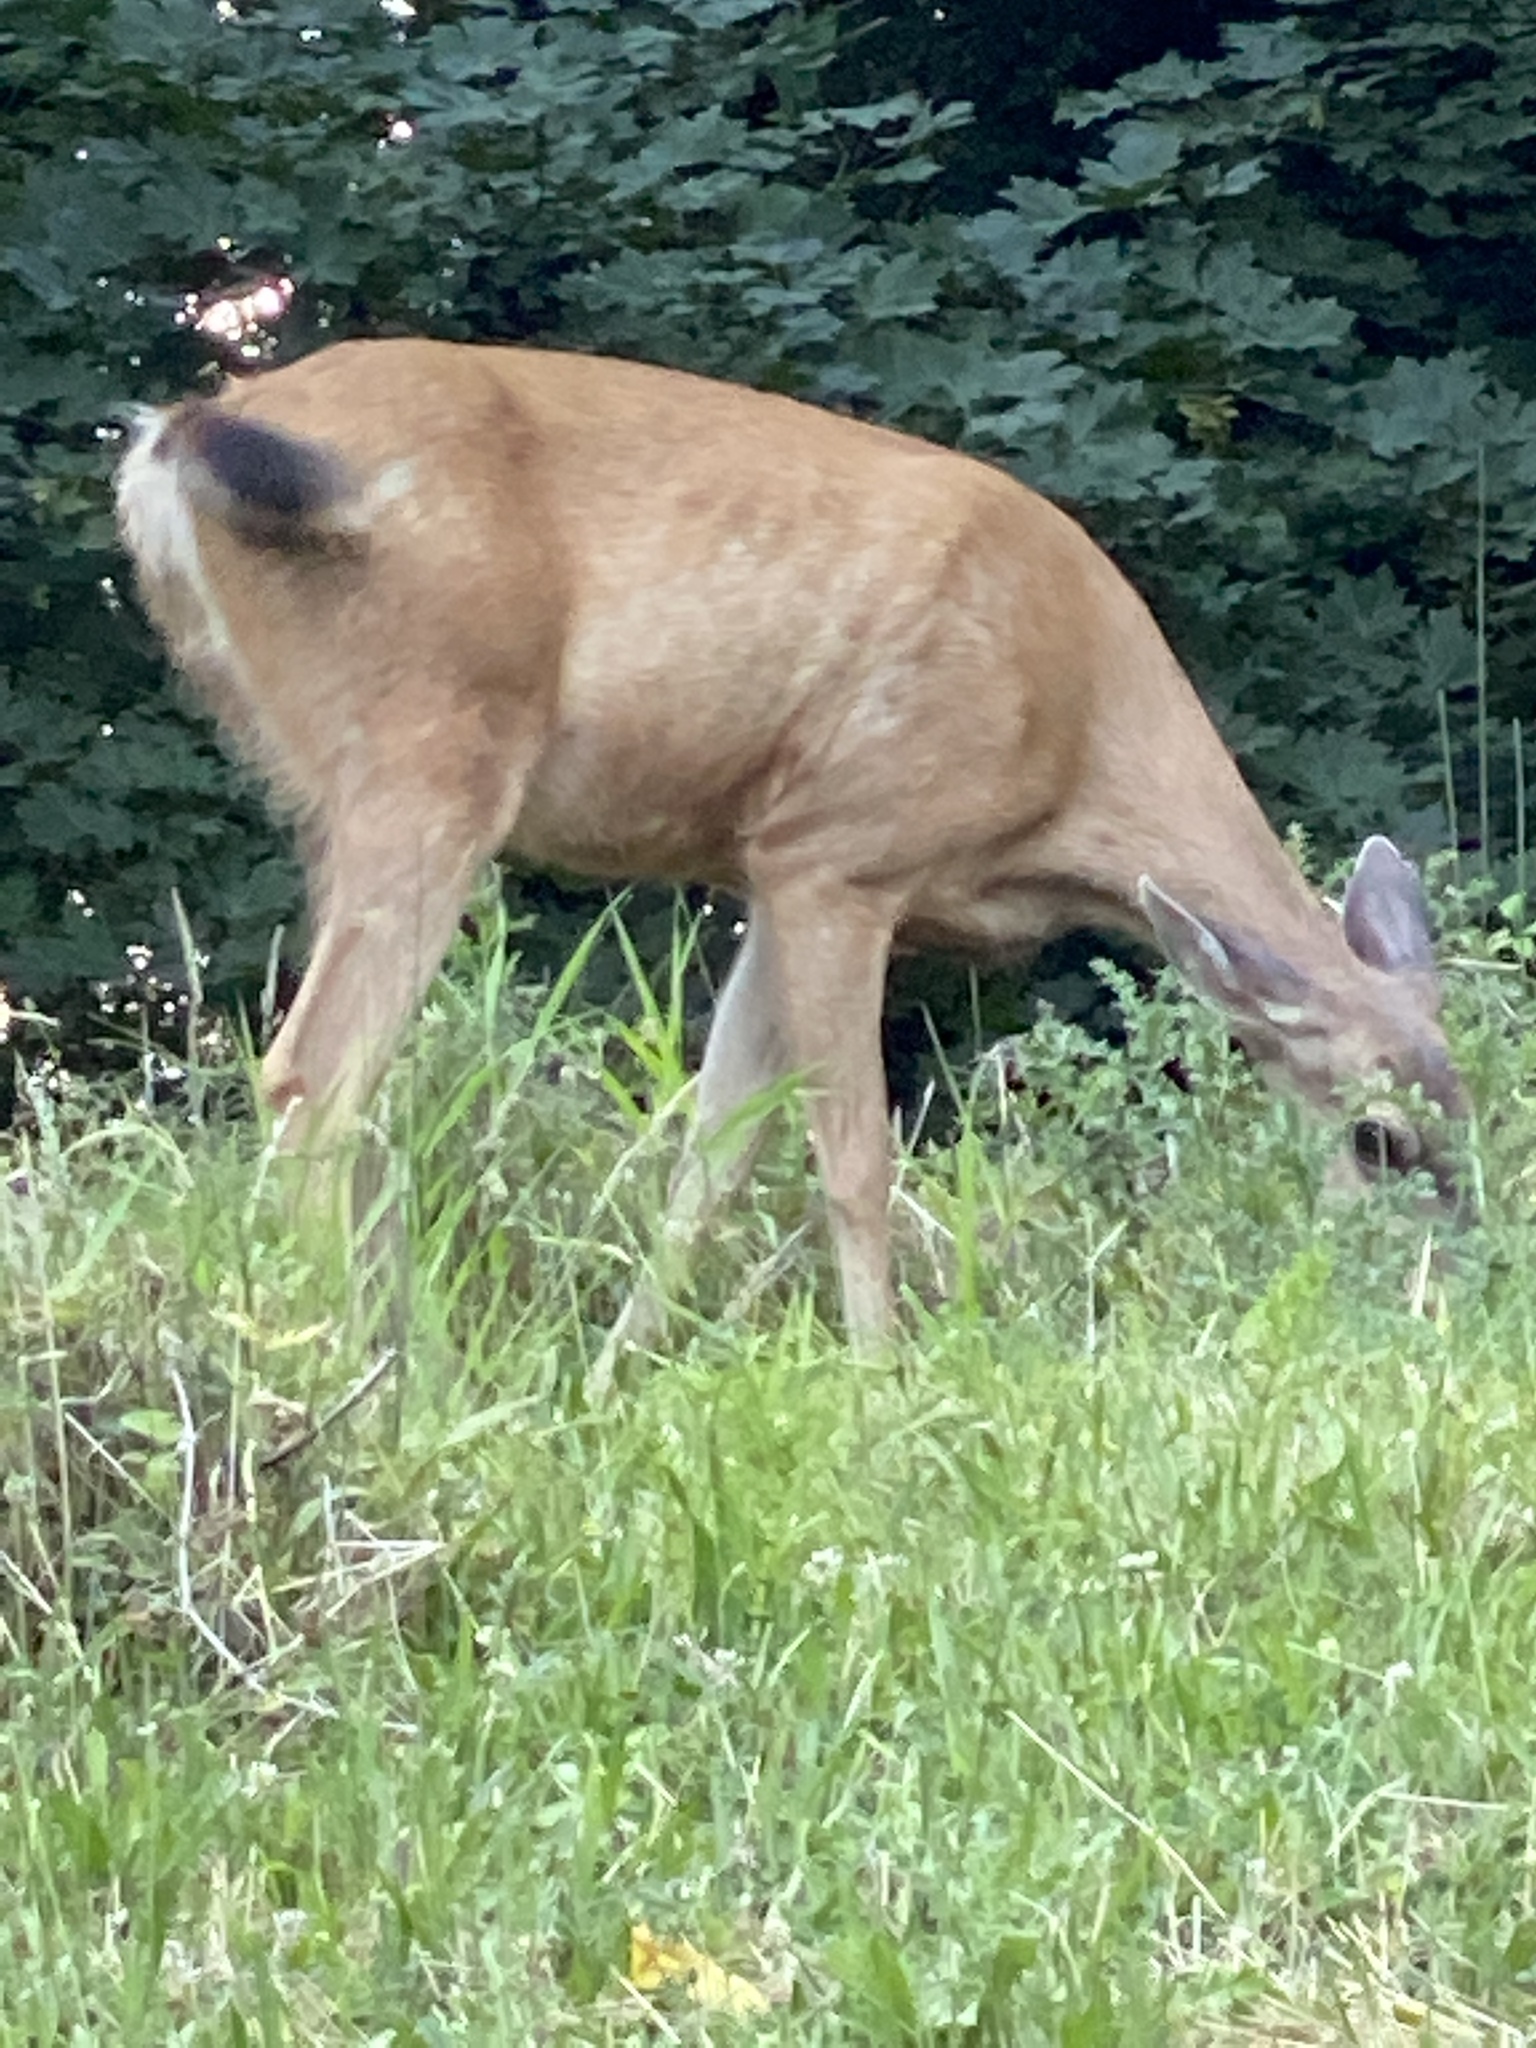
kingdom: Animalia
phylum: Chordata
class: Mammalia
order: Artiodactyla
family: Cervidae
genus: Odocoileus
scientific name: Odocoileus hemionus
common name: Mule deer
